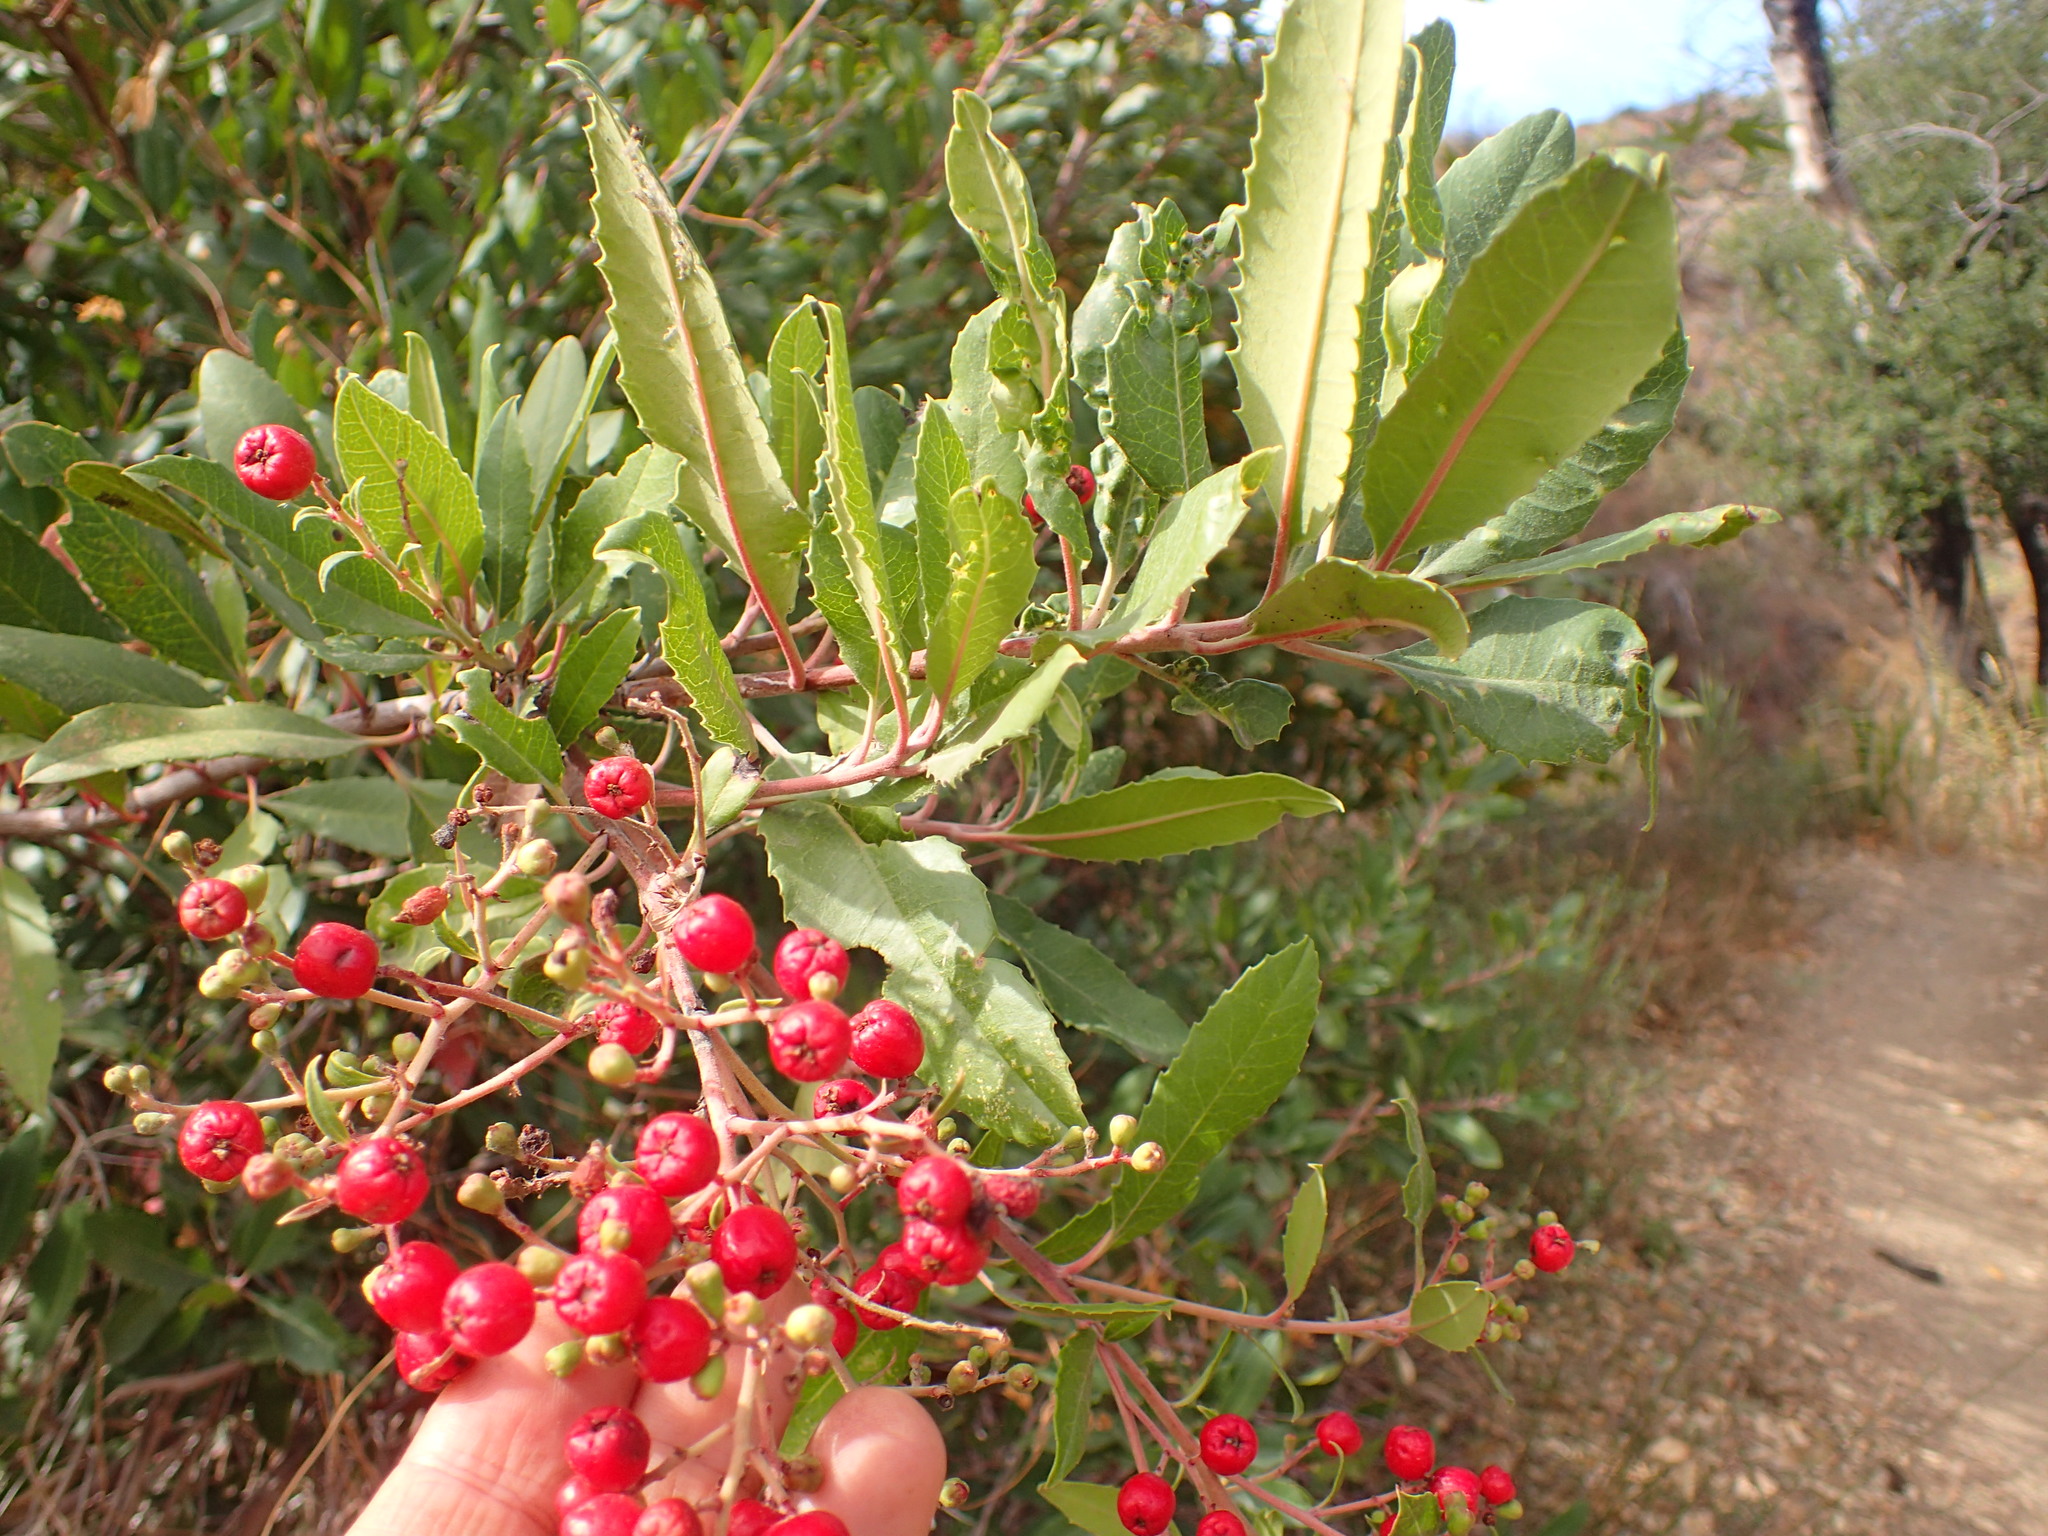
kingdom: Plantae
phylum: Tracheophyta
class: Magnoliopsida
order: Rosales
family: Rosaceae
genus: Heteromeles
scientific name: Heteromeles arbutifolia
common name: California-holly
